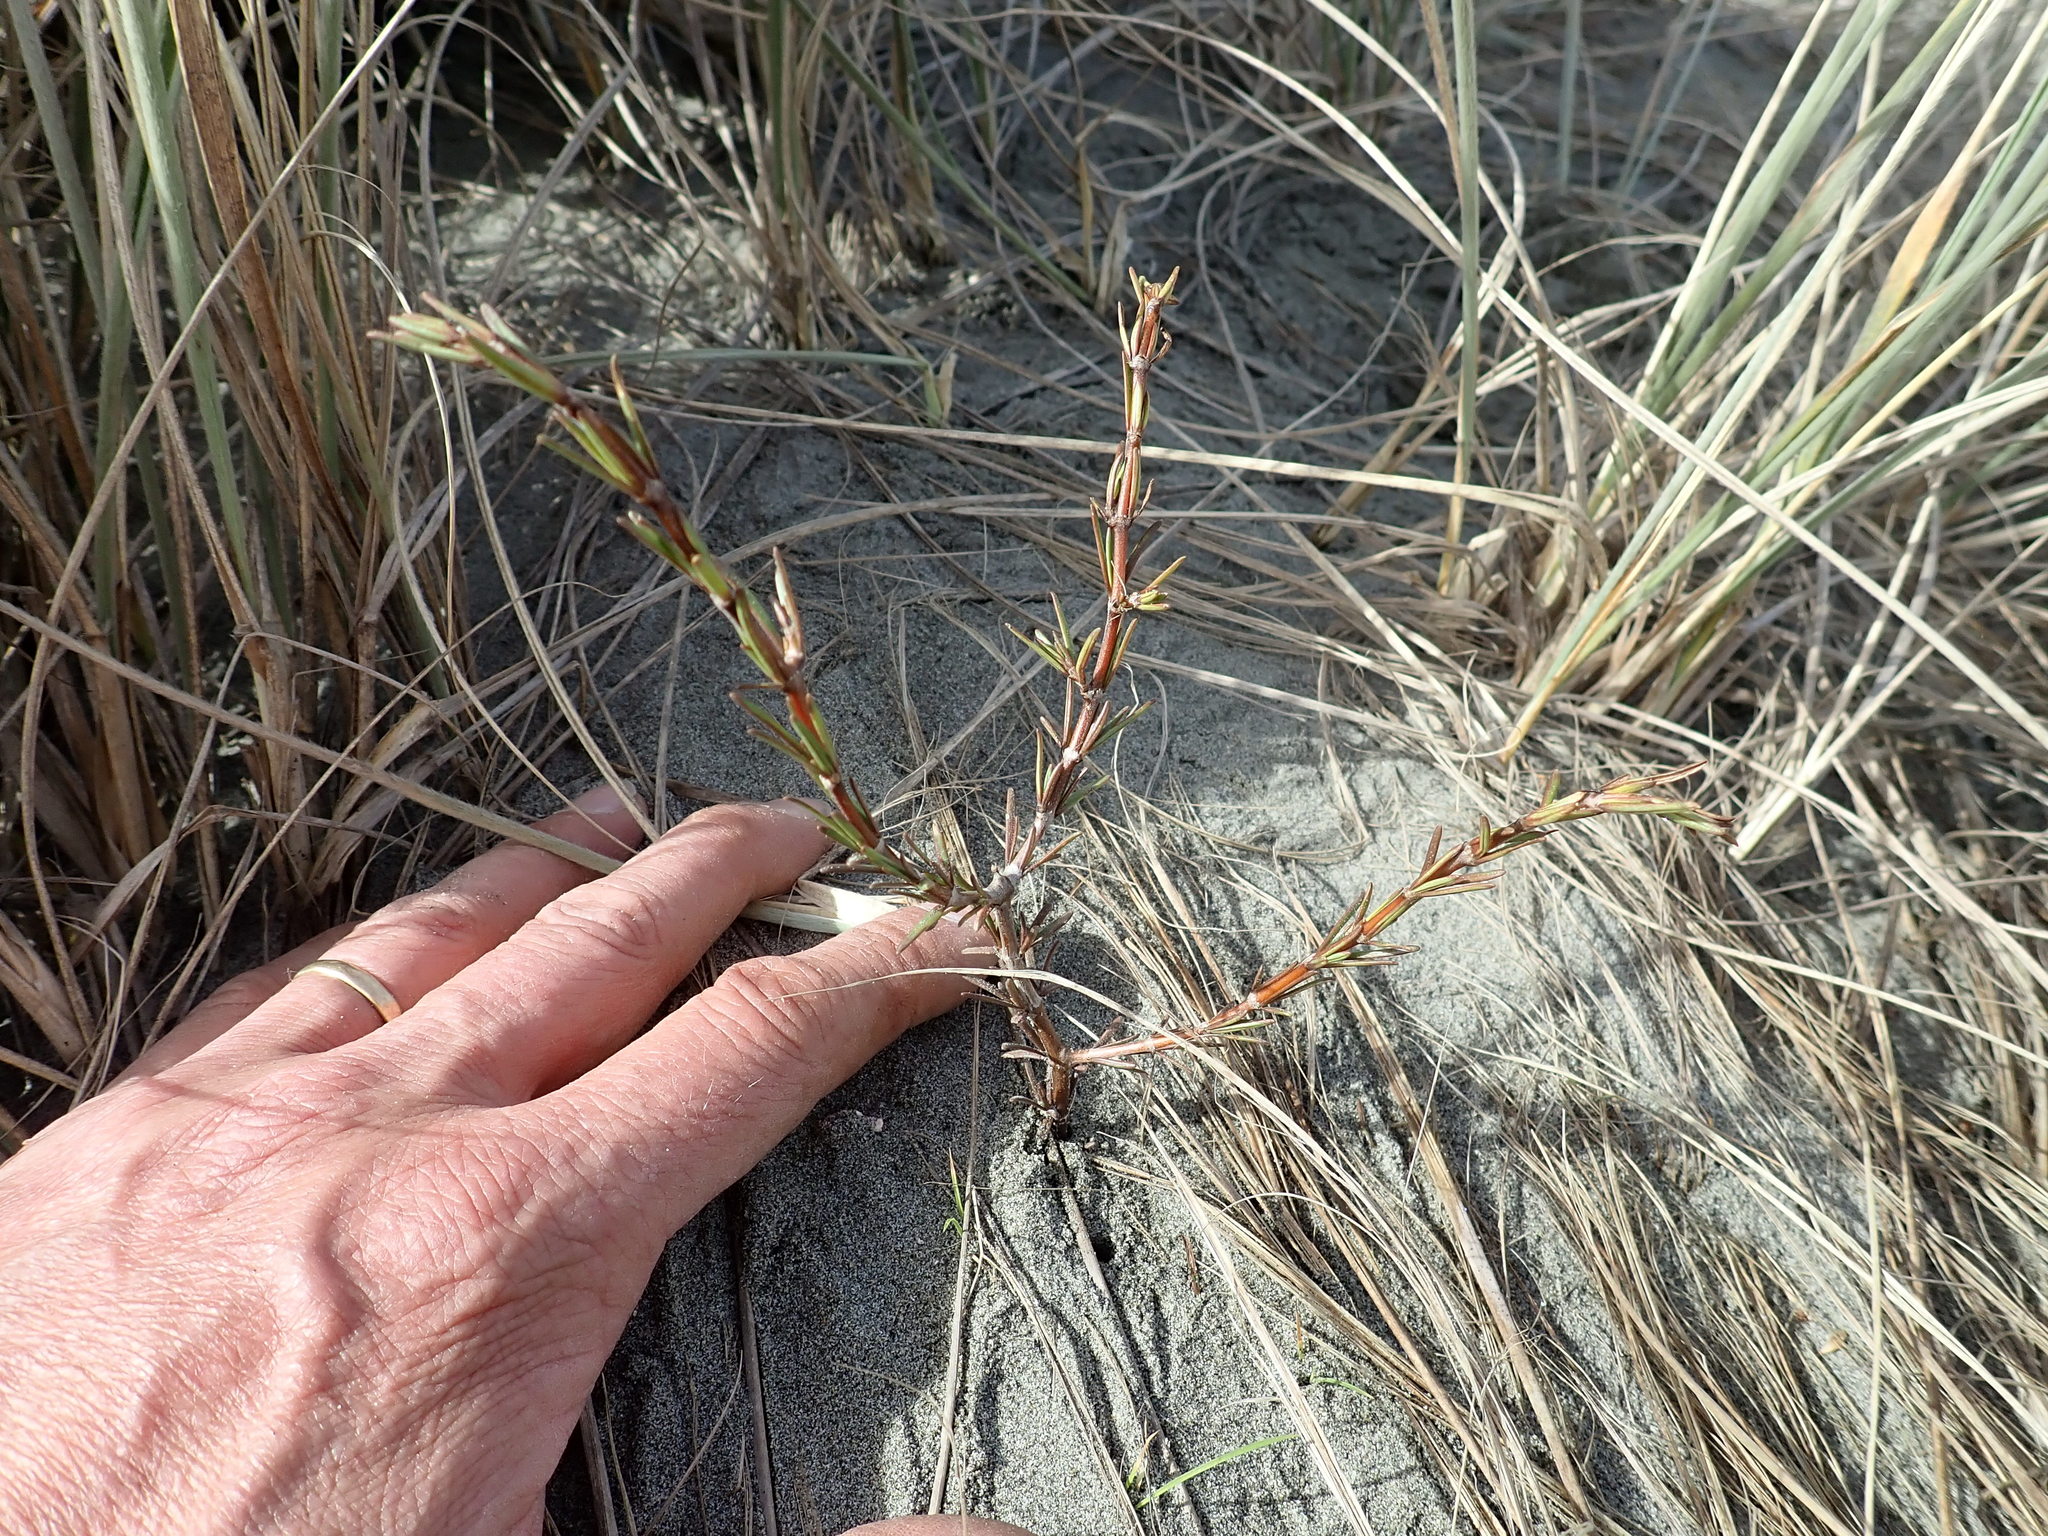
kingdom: Plantae
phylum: Tracheophyta
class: Magnoliopsida
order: Gentianales
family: Rubiaceae
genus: Coprosma
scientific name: Coprosma acerosa
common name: Sand coprosma
